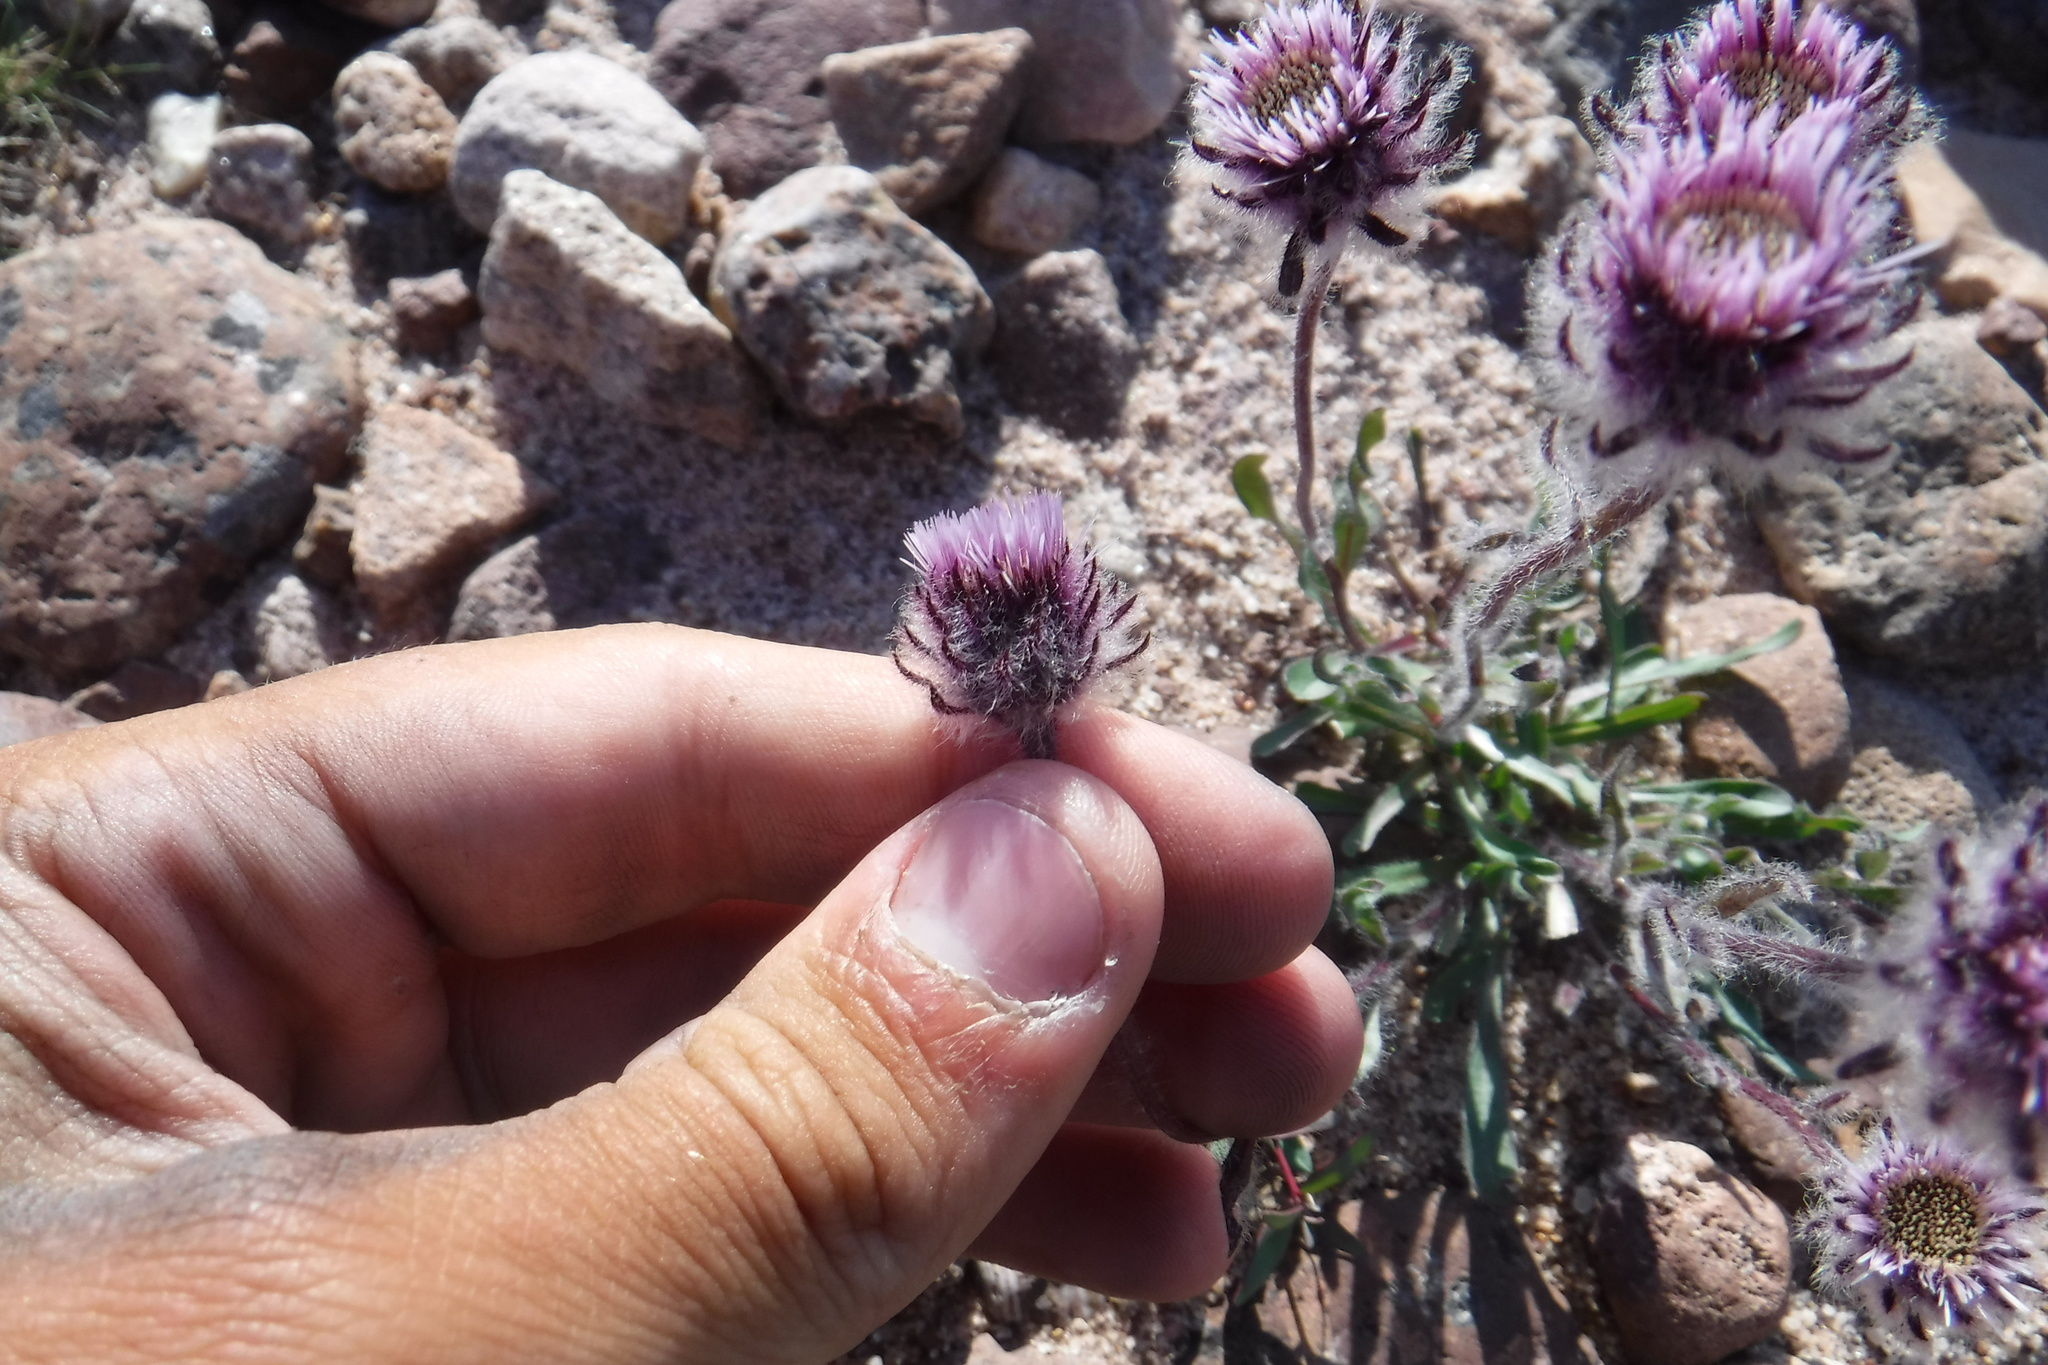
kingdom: Plantae
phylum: Tracheophyta
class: Magnoliopsida
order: Asterales
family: Asteraceae
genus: Erigeron
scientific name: Erigeron eriocephalus
